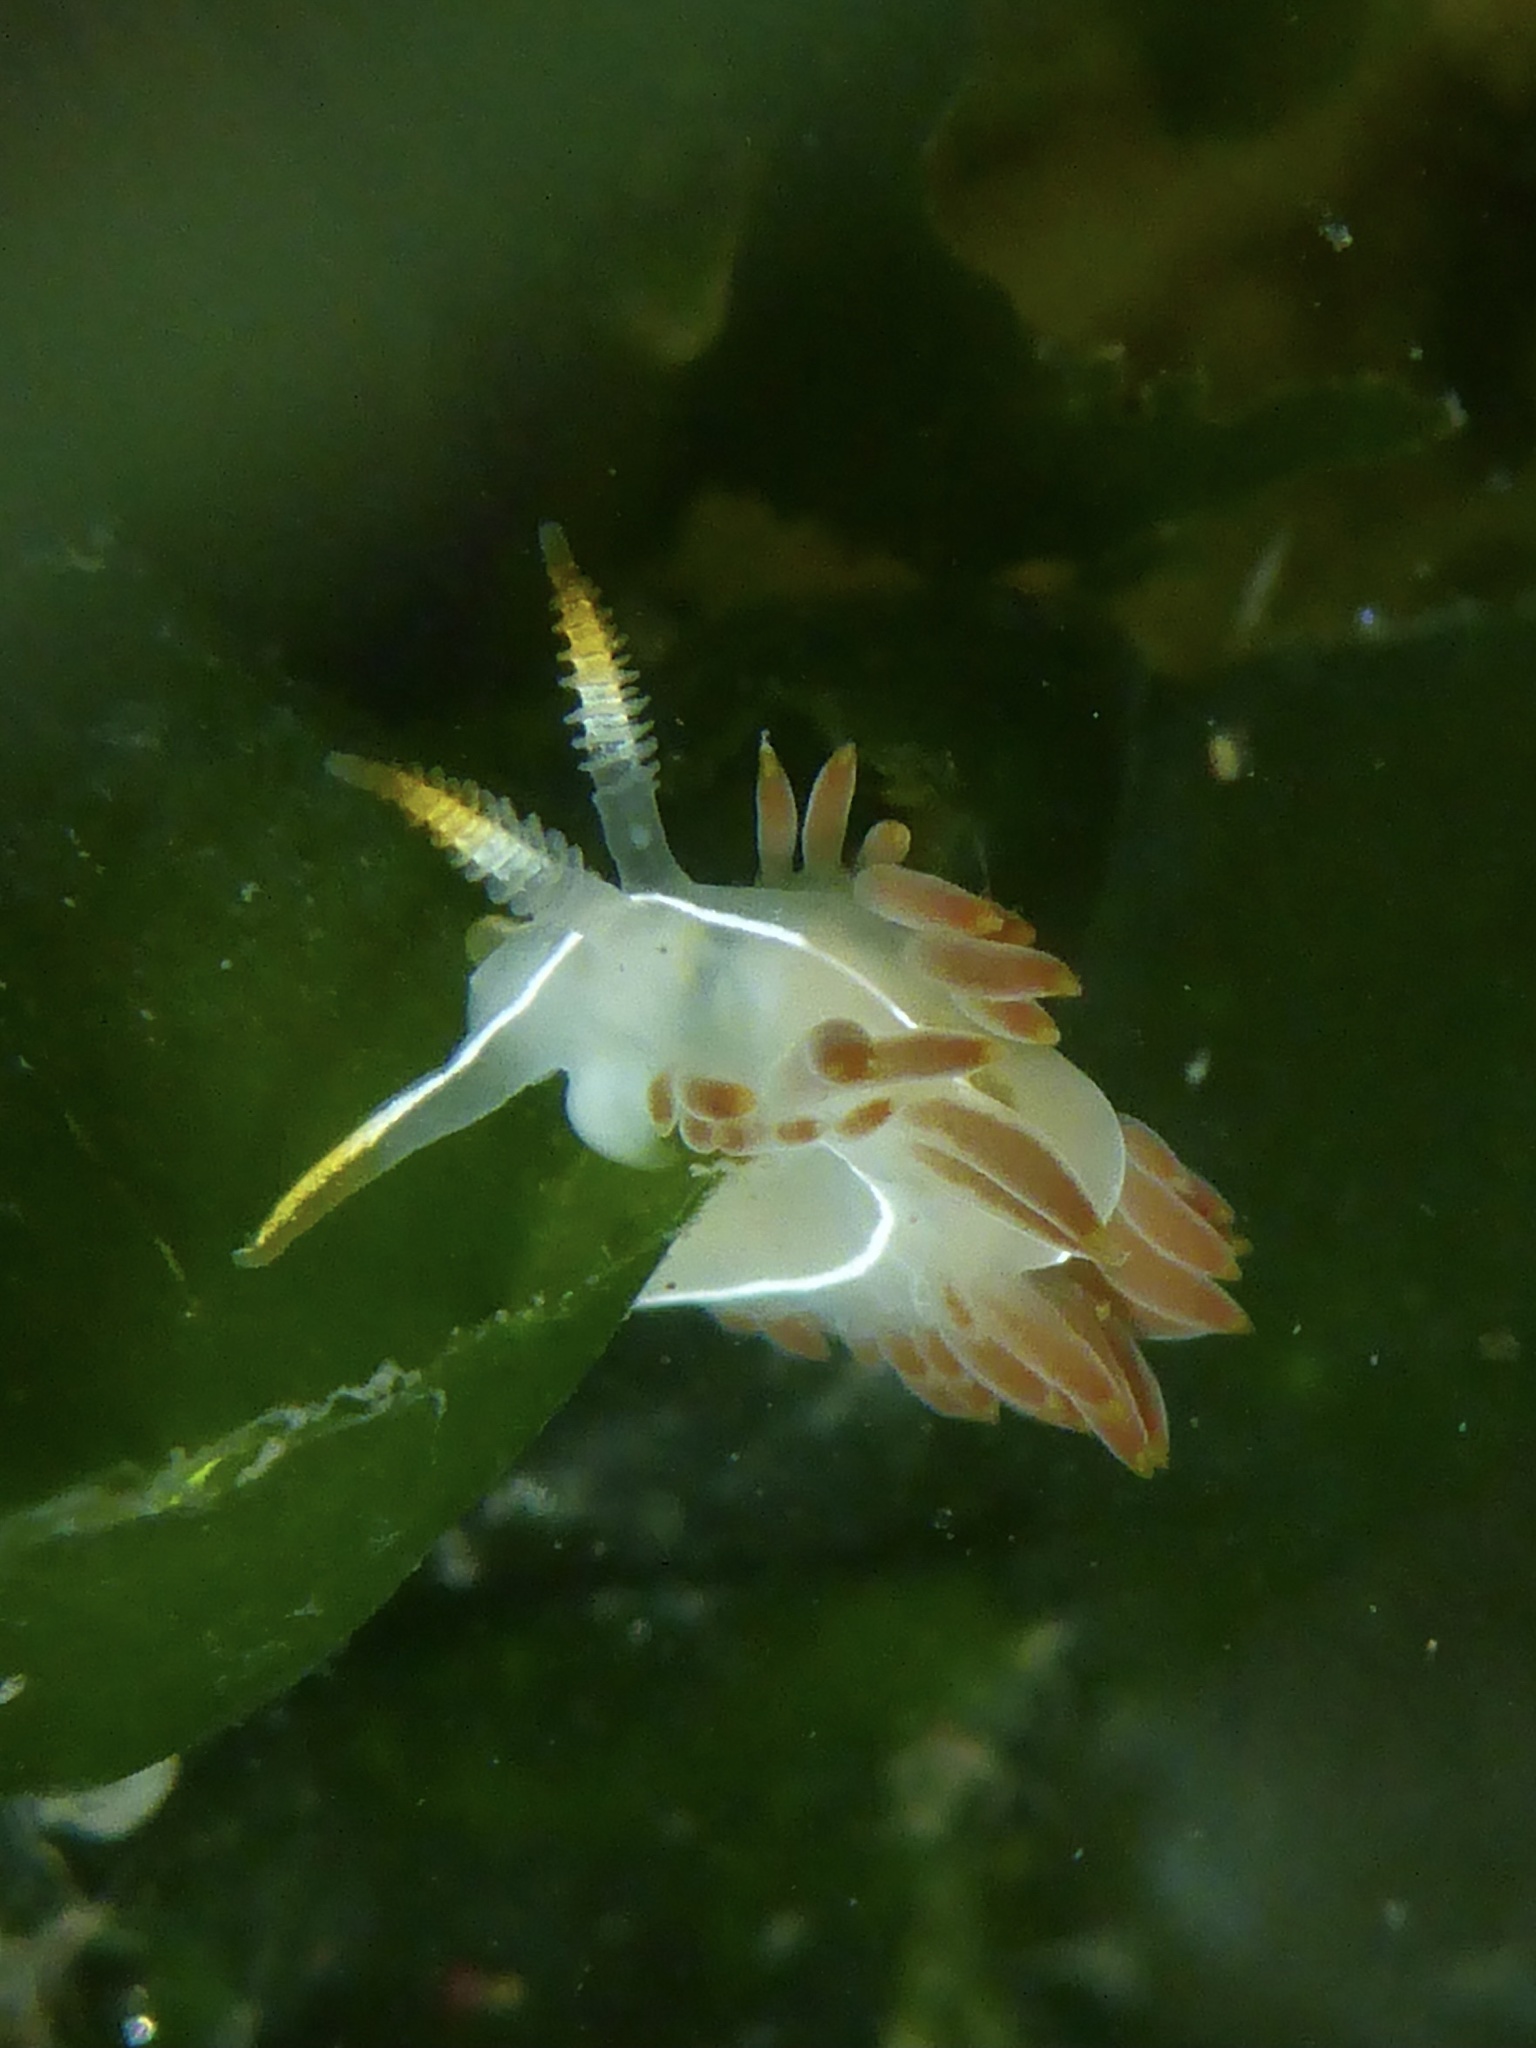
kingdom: Animalia
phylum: Mollusca
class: Gastropoda
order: Nudibranchia
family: Coryphellidae
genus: Coryphella
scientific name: Coryphella trilineata
